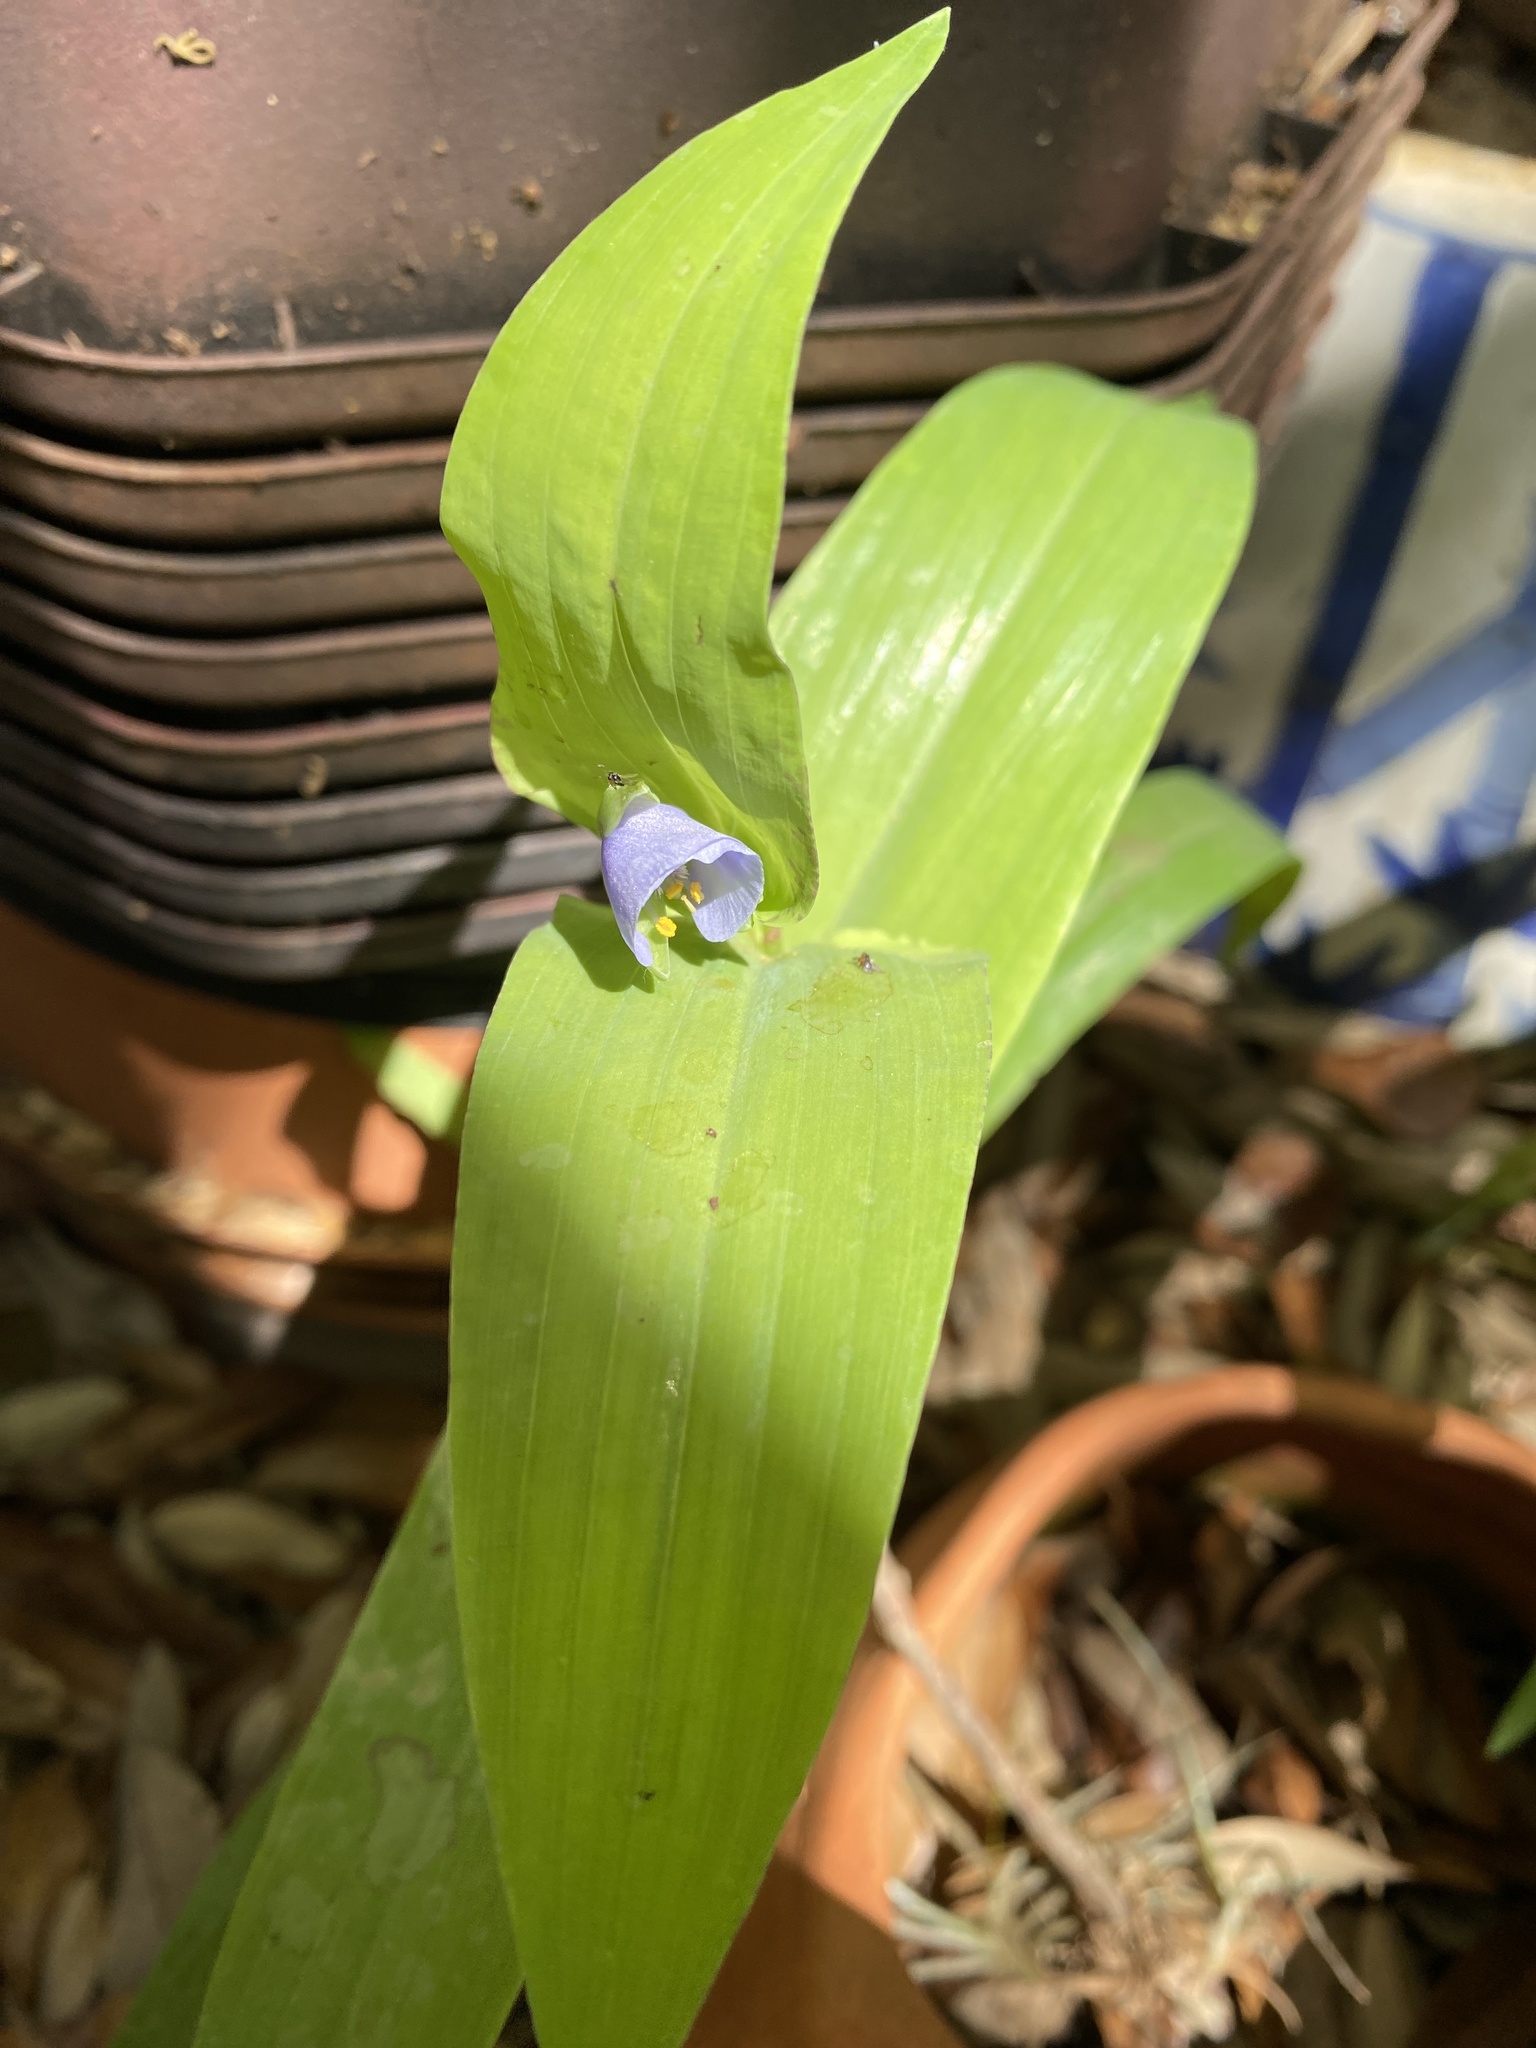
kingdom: Plantae
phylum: Tracheophyta
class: Liliopsida
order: Commelinales
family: Commelinaceae
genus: Tinantia
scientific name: Tinantia anomala
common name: False dayflower
